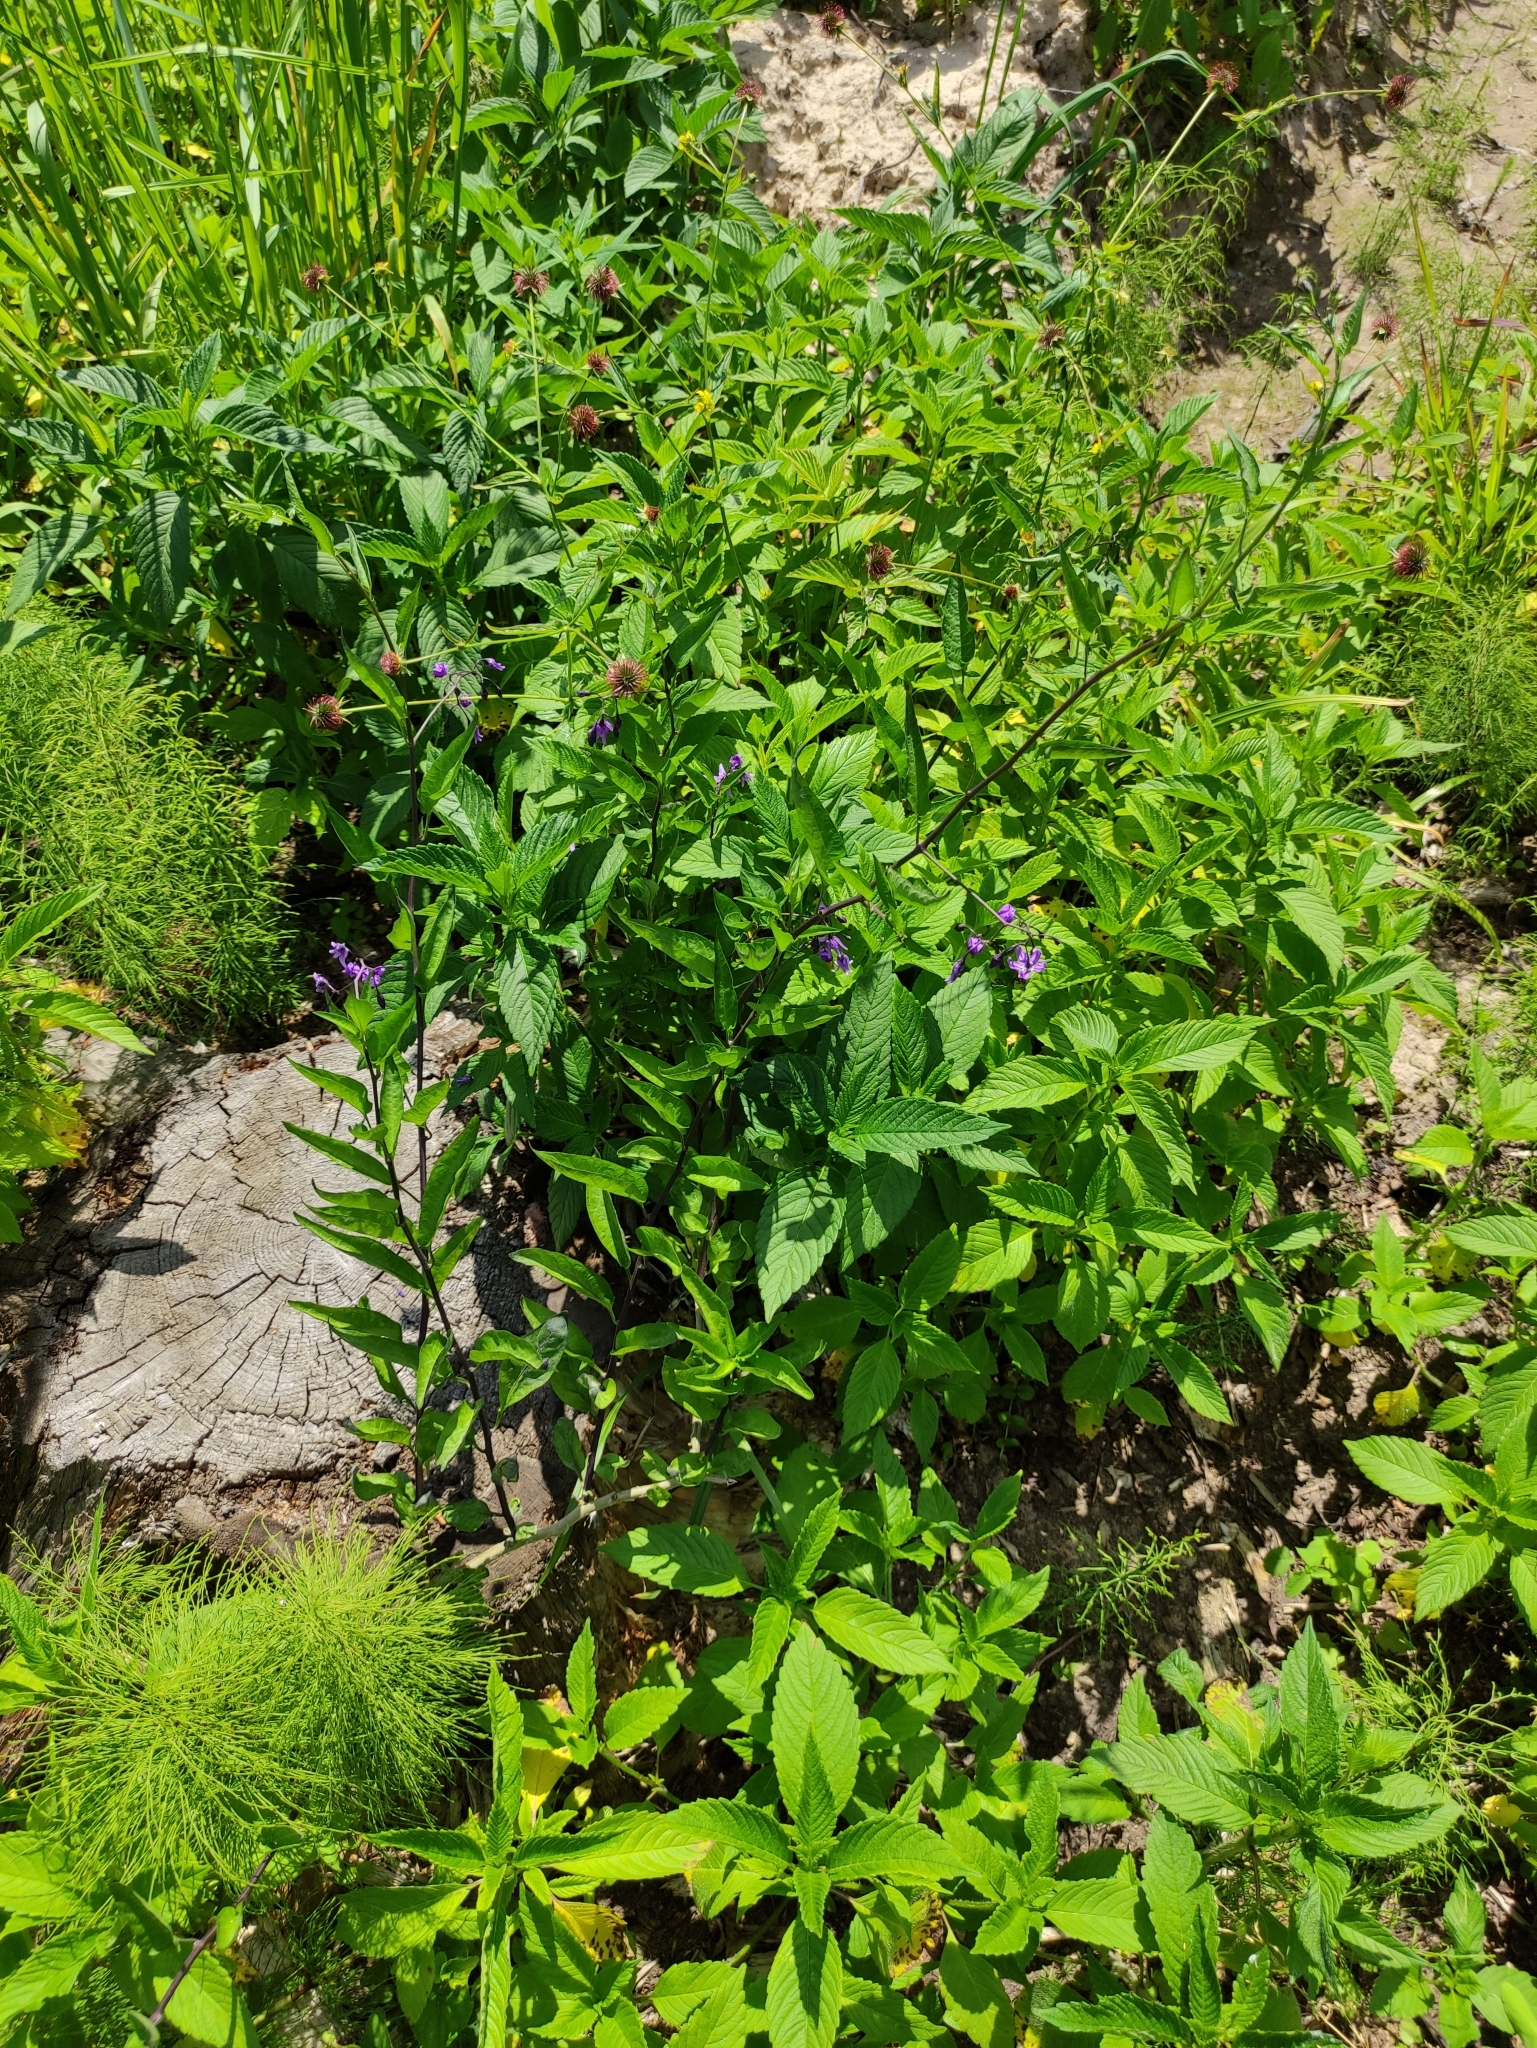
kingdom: Plantae
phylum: Tracheophyta
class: Magnoliopsida
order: Solanales
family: Solanaceae
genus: Solanum
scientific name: Solanum dulcamara
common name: Climbing nightshade
